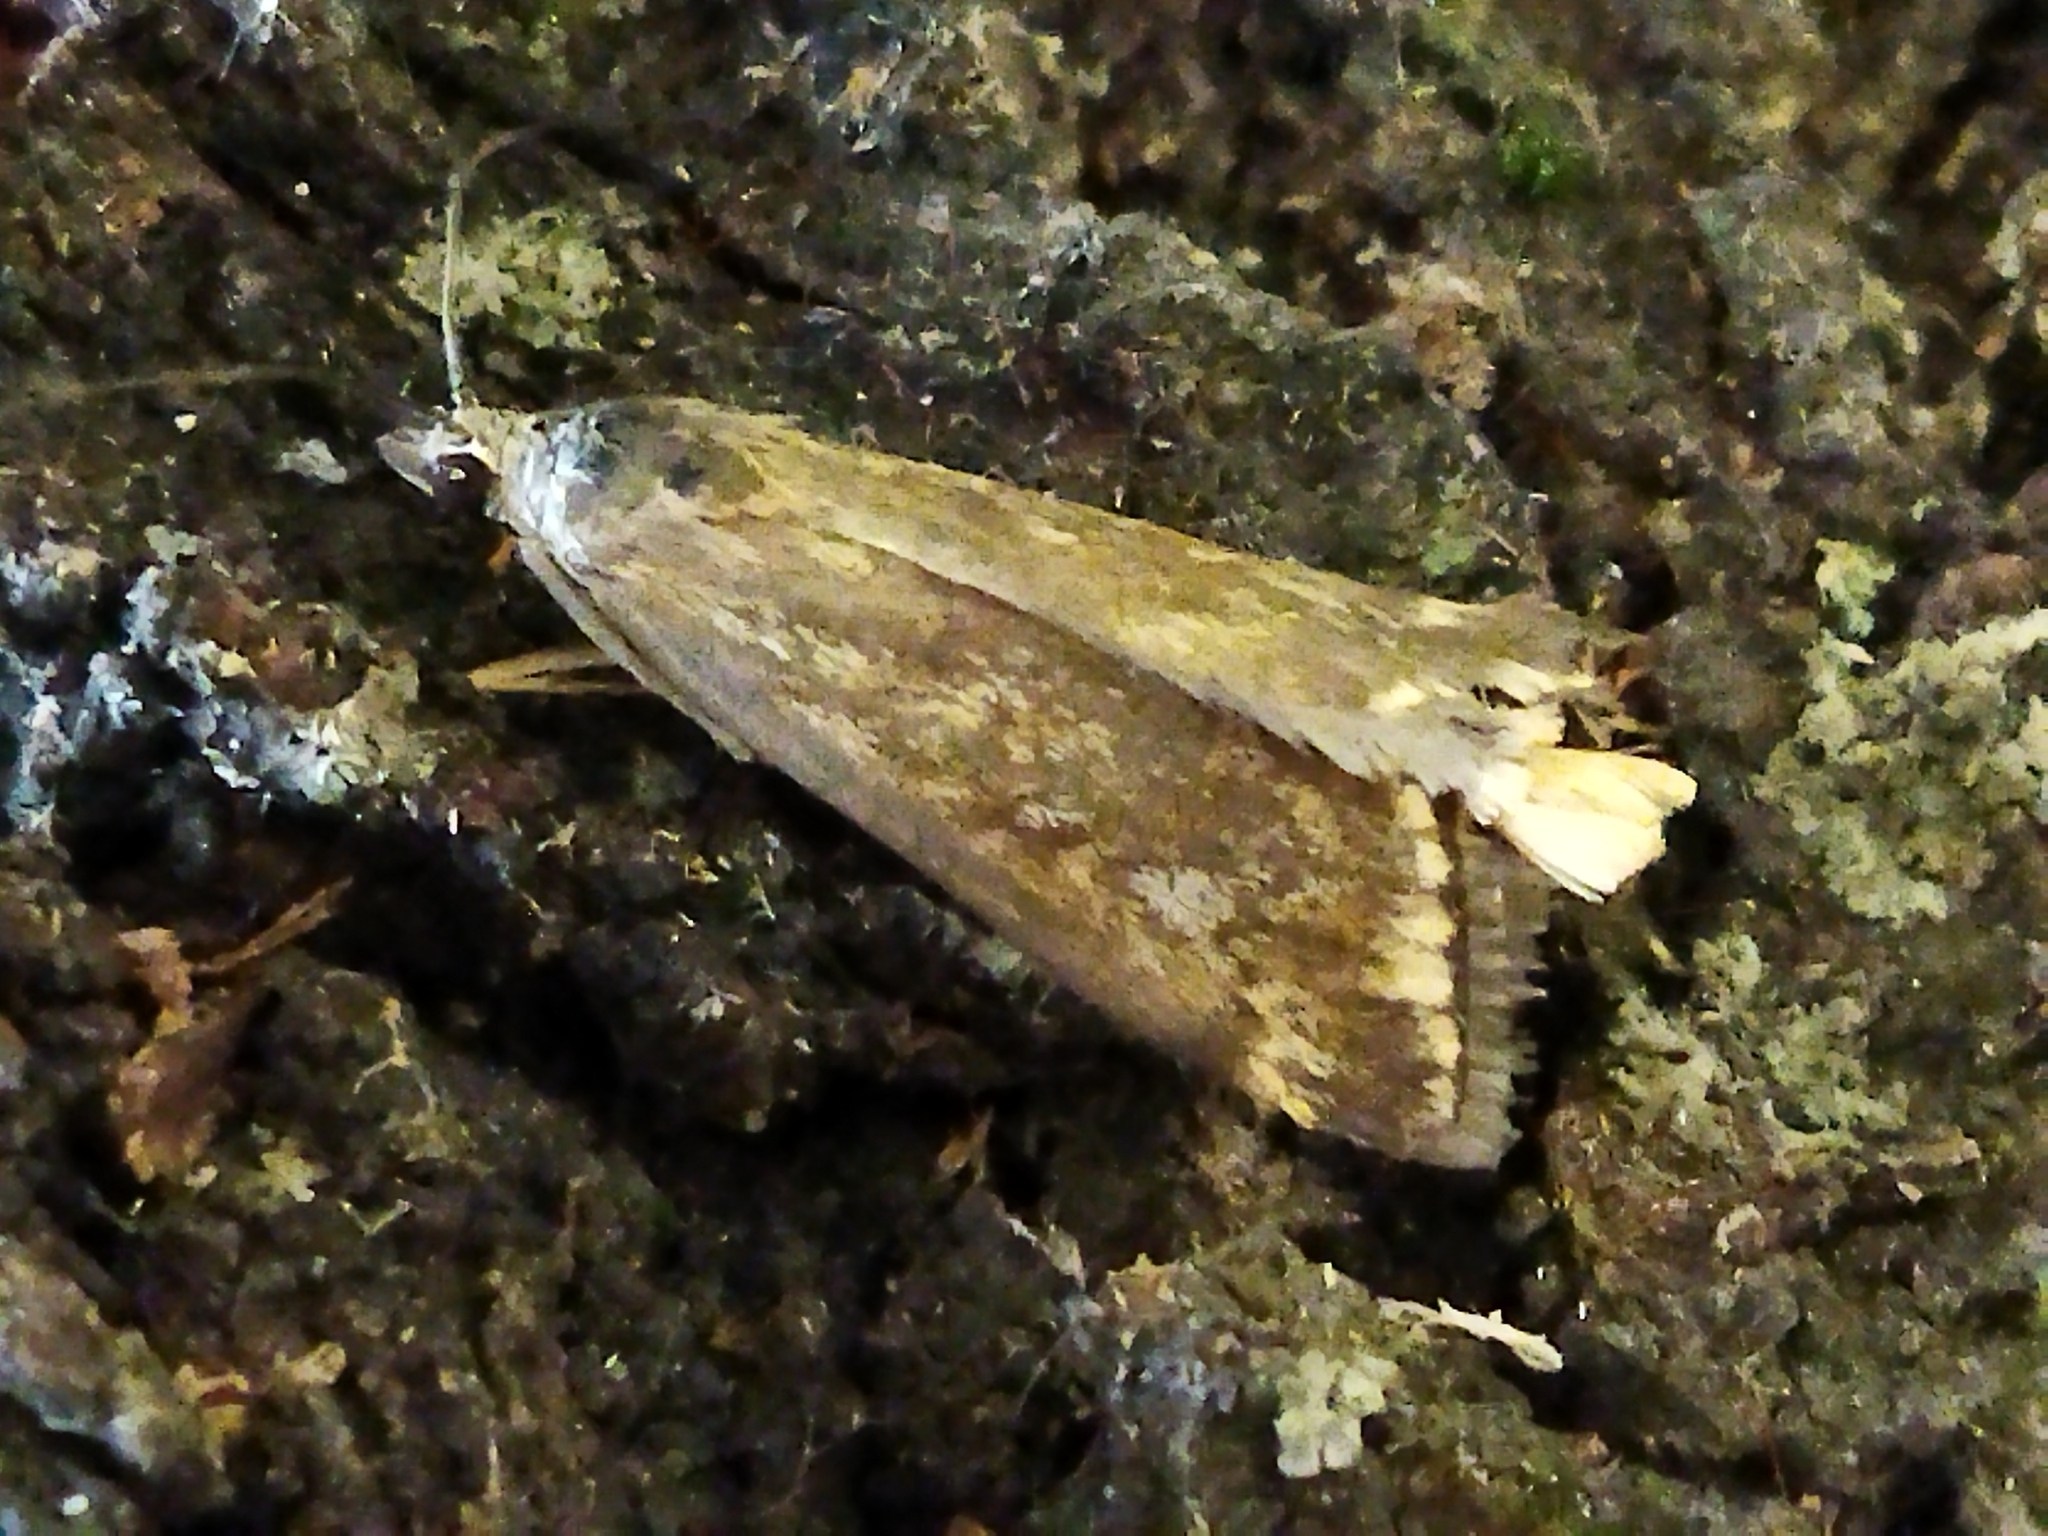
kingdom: Animalia
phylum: Arthropoda
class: Insecta
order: Lepidoptera
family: Crambidae
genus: Loxostege
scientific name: Loxostege sticticalis
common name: Crambid moth
